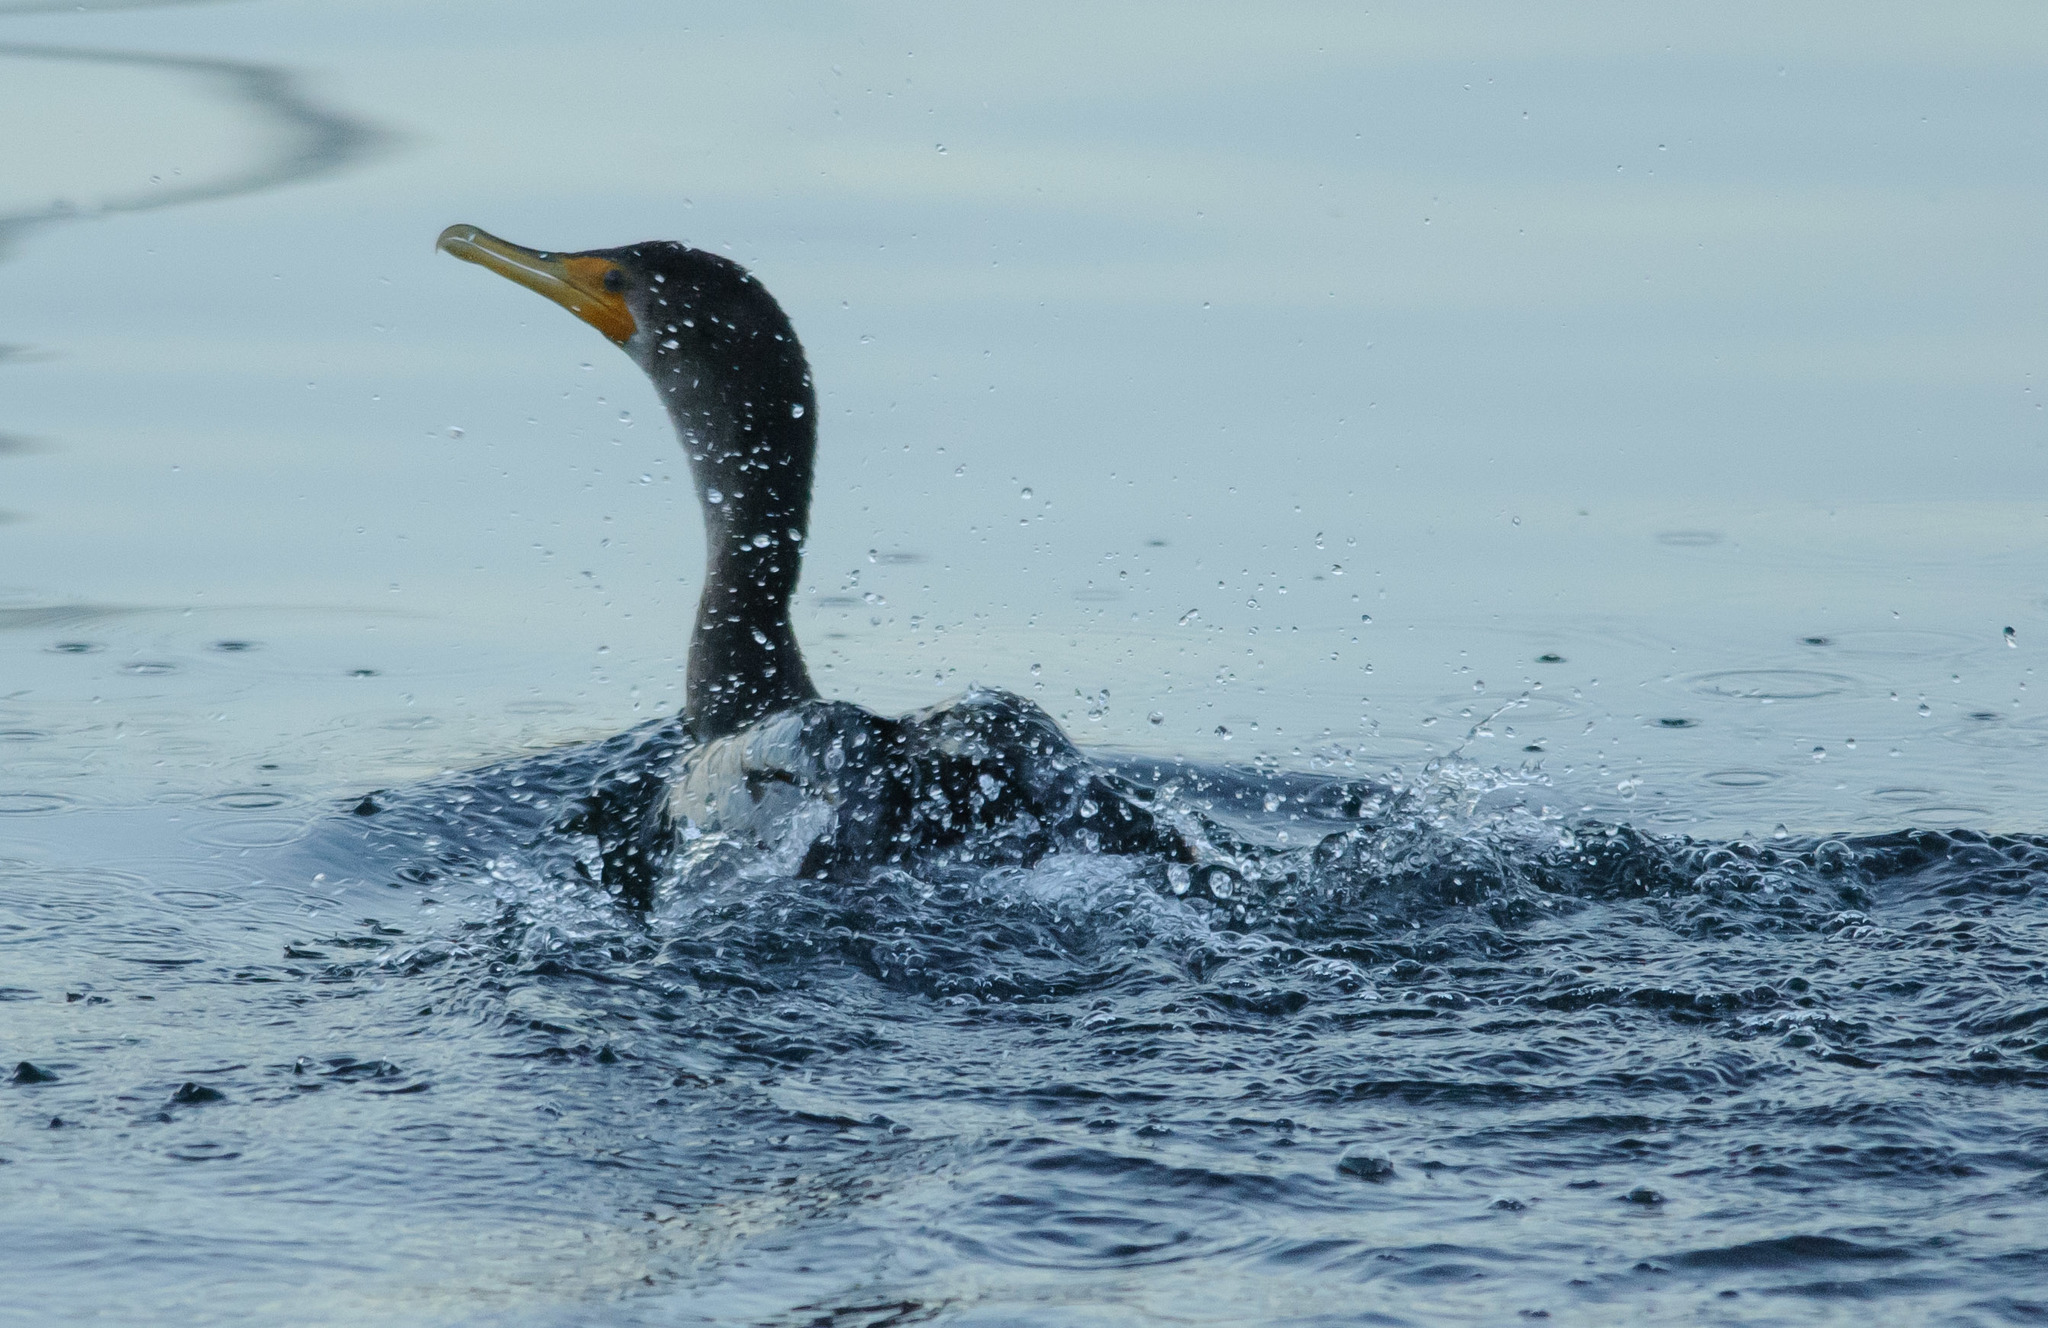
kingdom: Animalia
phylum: Chordata
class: Aves
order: Suliformes
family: Phalacrocoracidae
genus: Phalacrocorax
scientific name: Phalacrocorax auritus
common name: Double-crested cormorant
